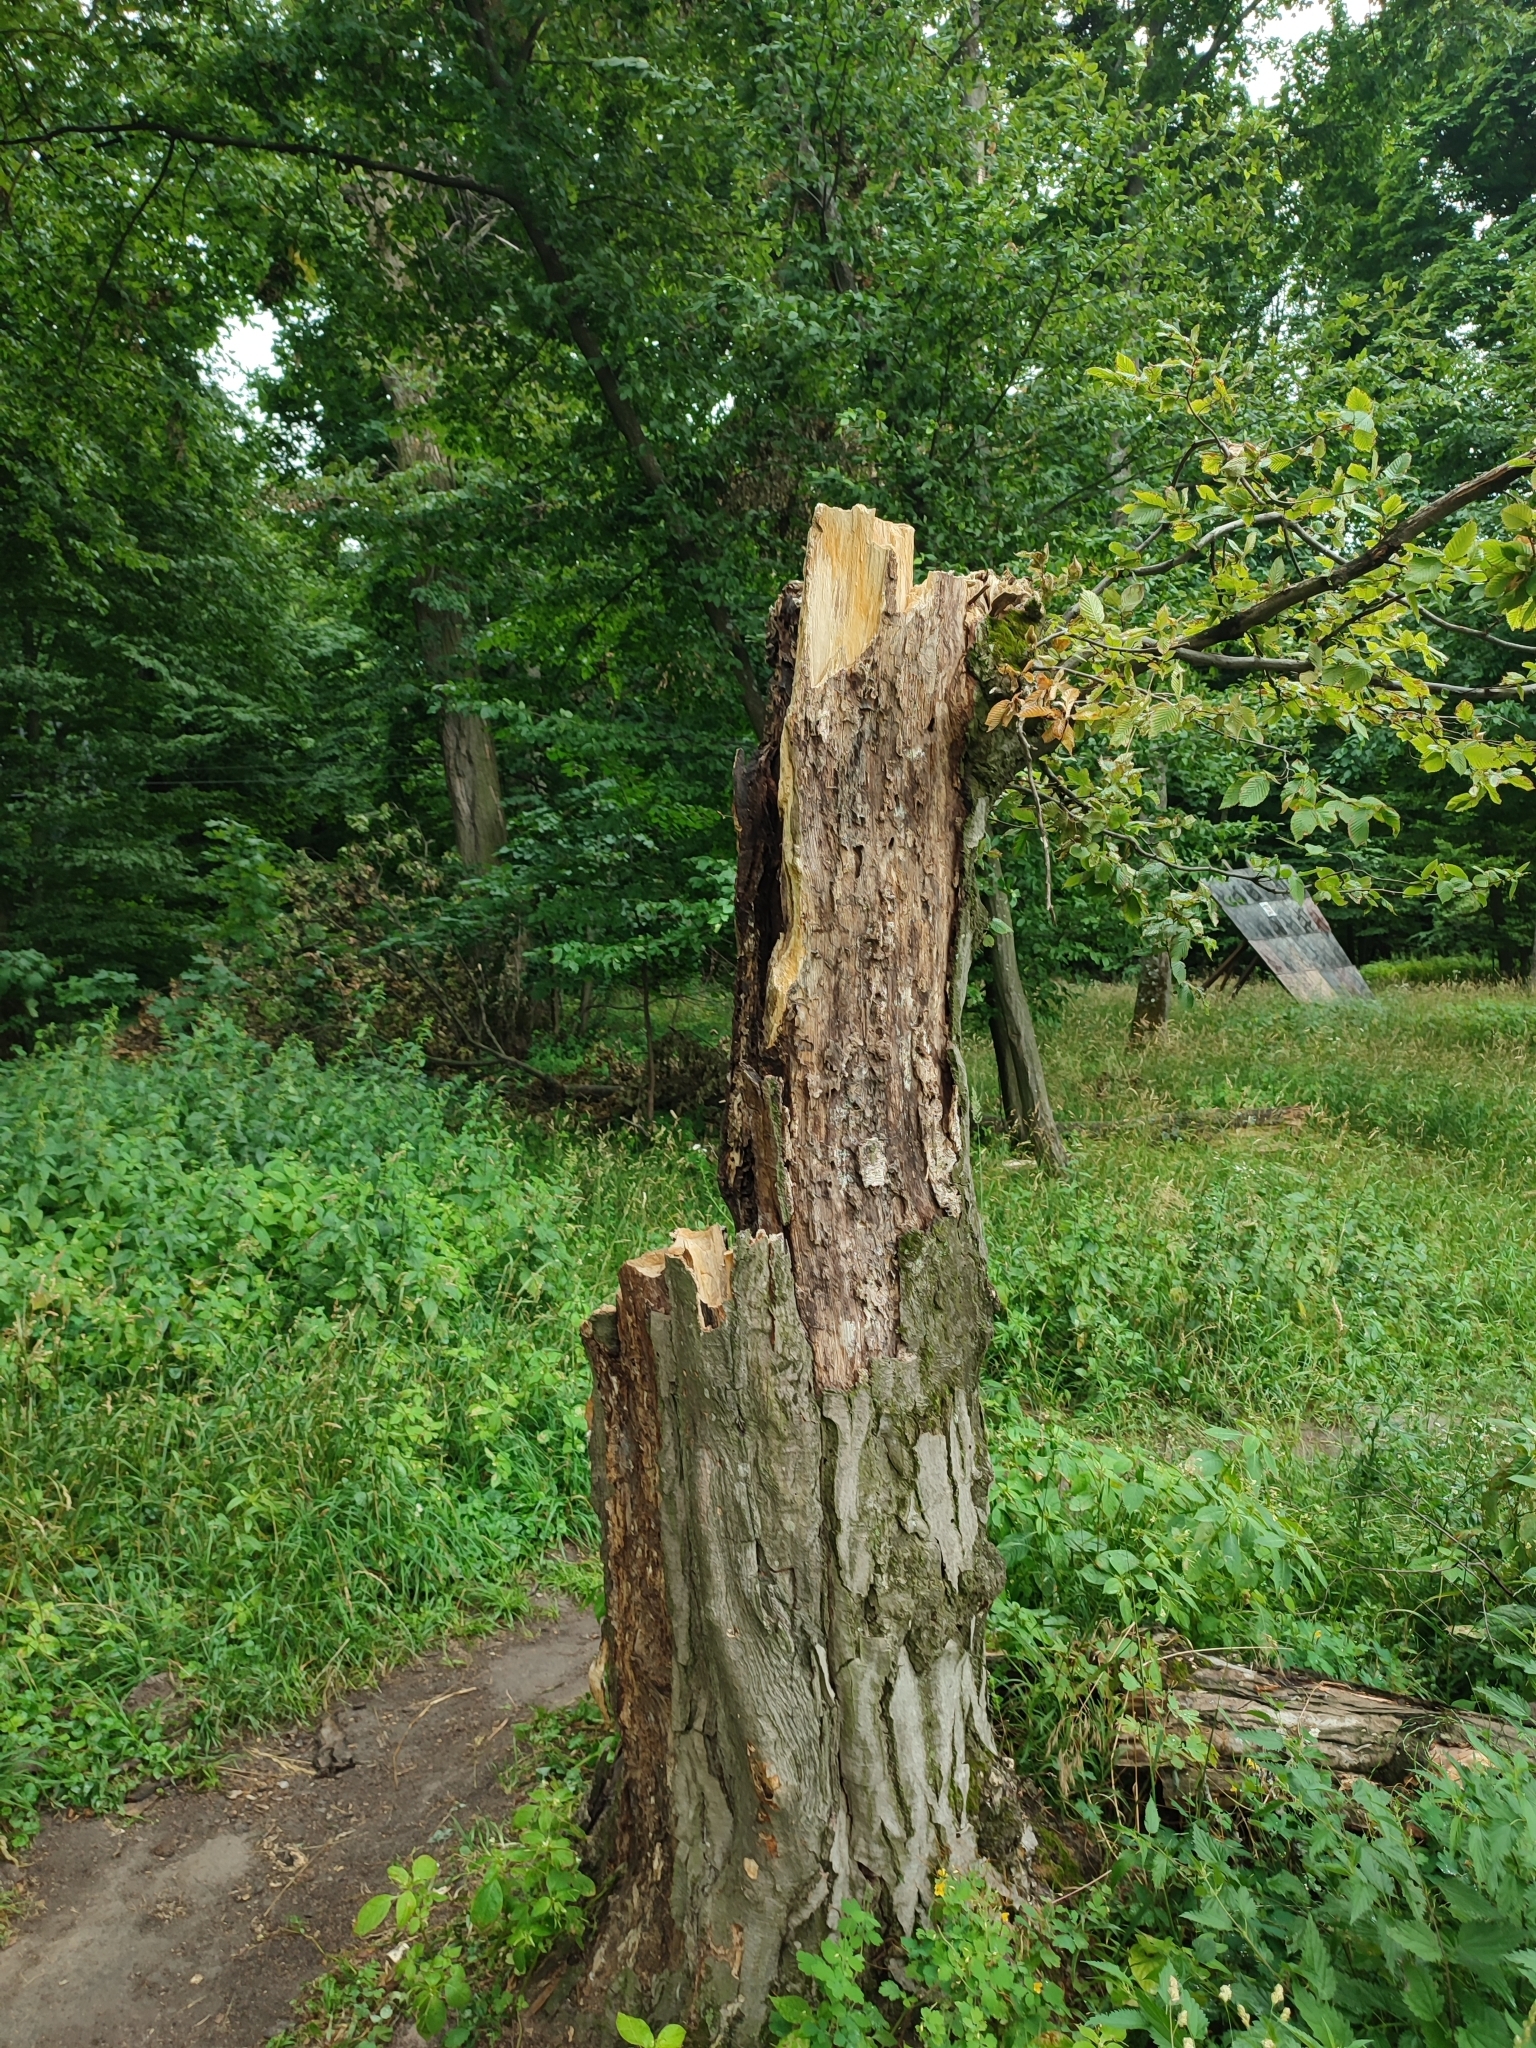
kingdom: Plantae
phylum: Tracheophyta
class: Magnoliopsida
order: Fagales
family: Betulaceae
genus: Carpinus
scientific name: Carpinus betulus
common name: Hornbeam
